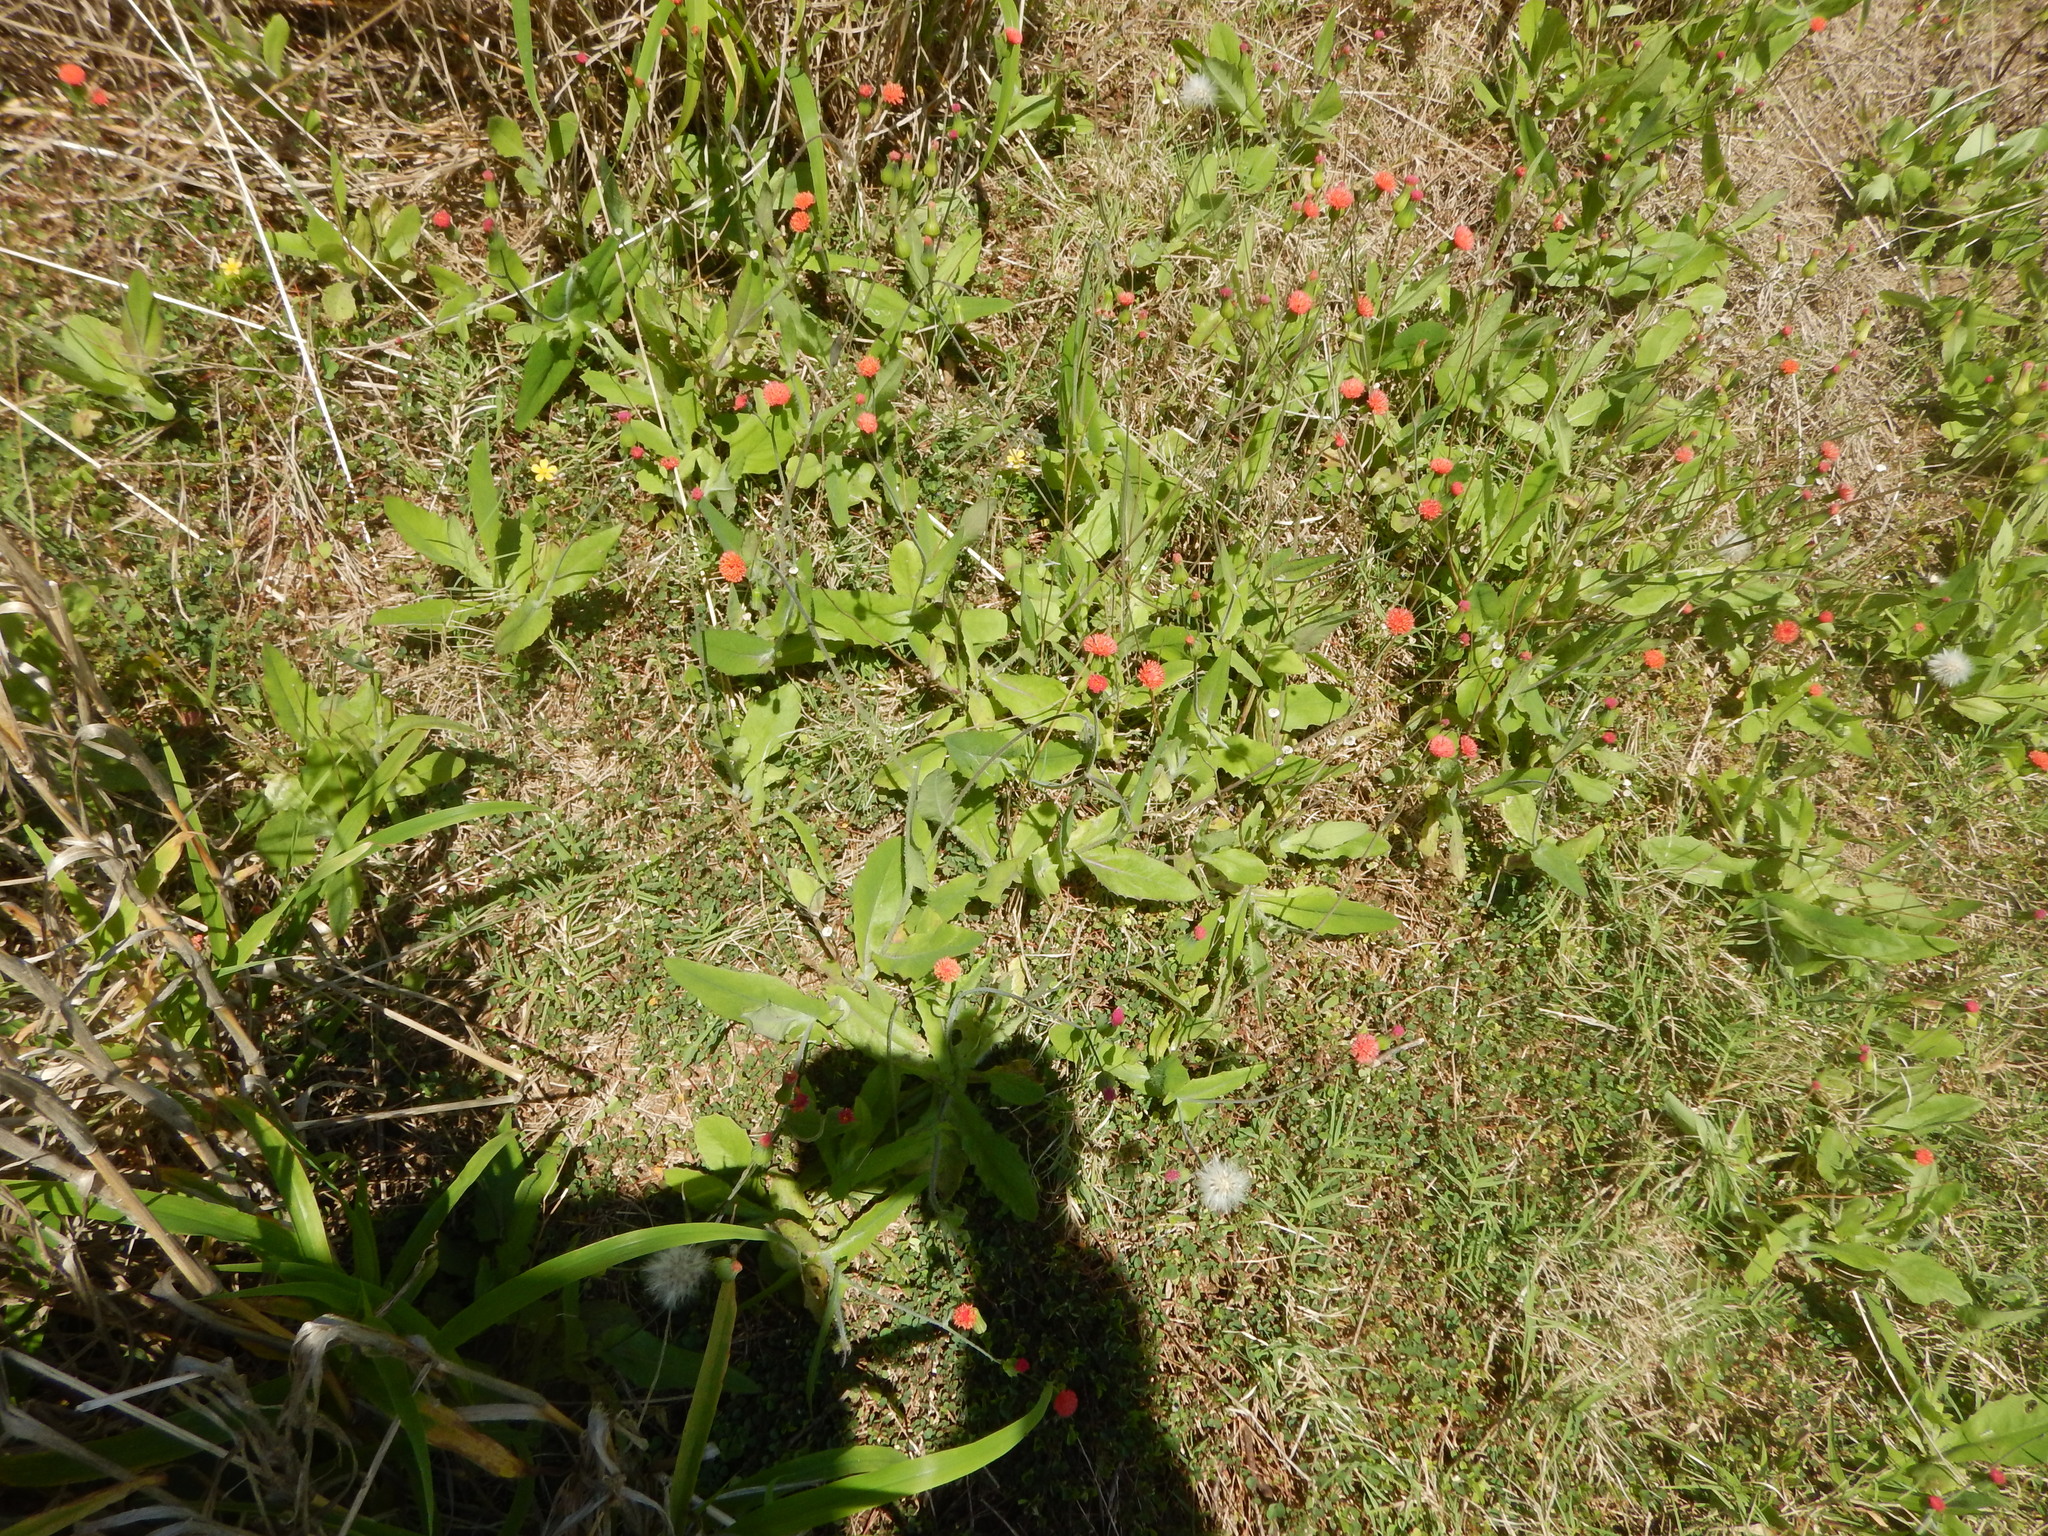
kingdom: Plantae
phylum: Tracheophyta
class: Magnoliopsida
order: Asterales
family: Asteraceae
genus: Emilia
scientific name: Emilia fosbergii
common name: Florida tasselflower
